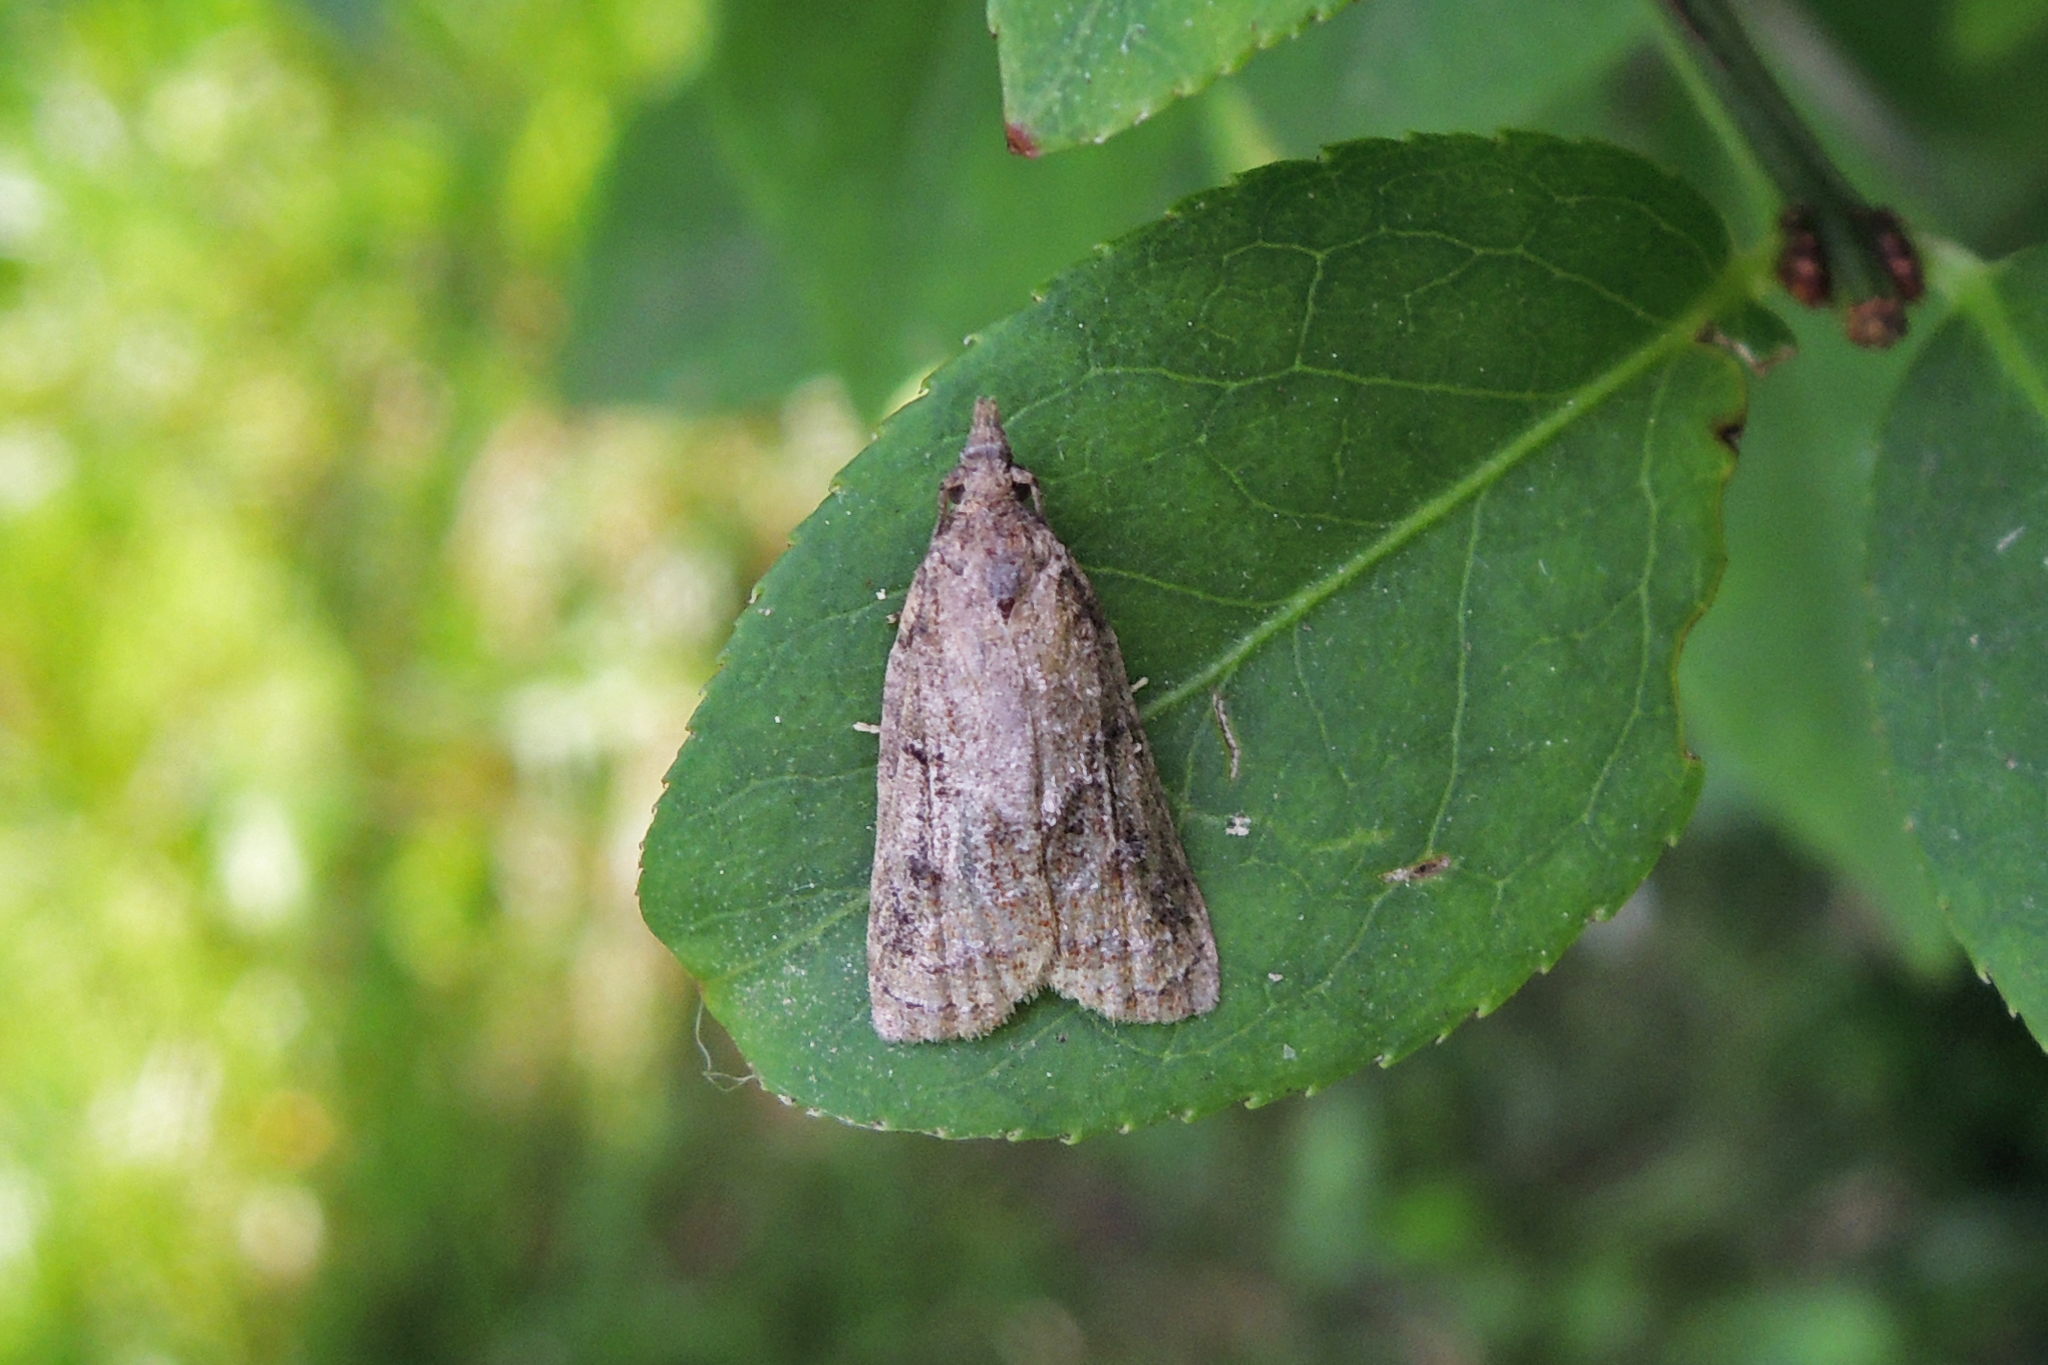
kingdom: Animalia
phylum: Arthropoda
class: Insecta
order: Lepidoptera
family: Tortricidae
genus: Platynota
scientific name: Platynota idaeusalis
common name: Tufted apple bud moth
